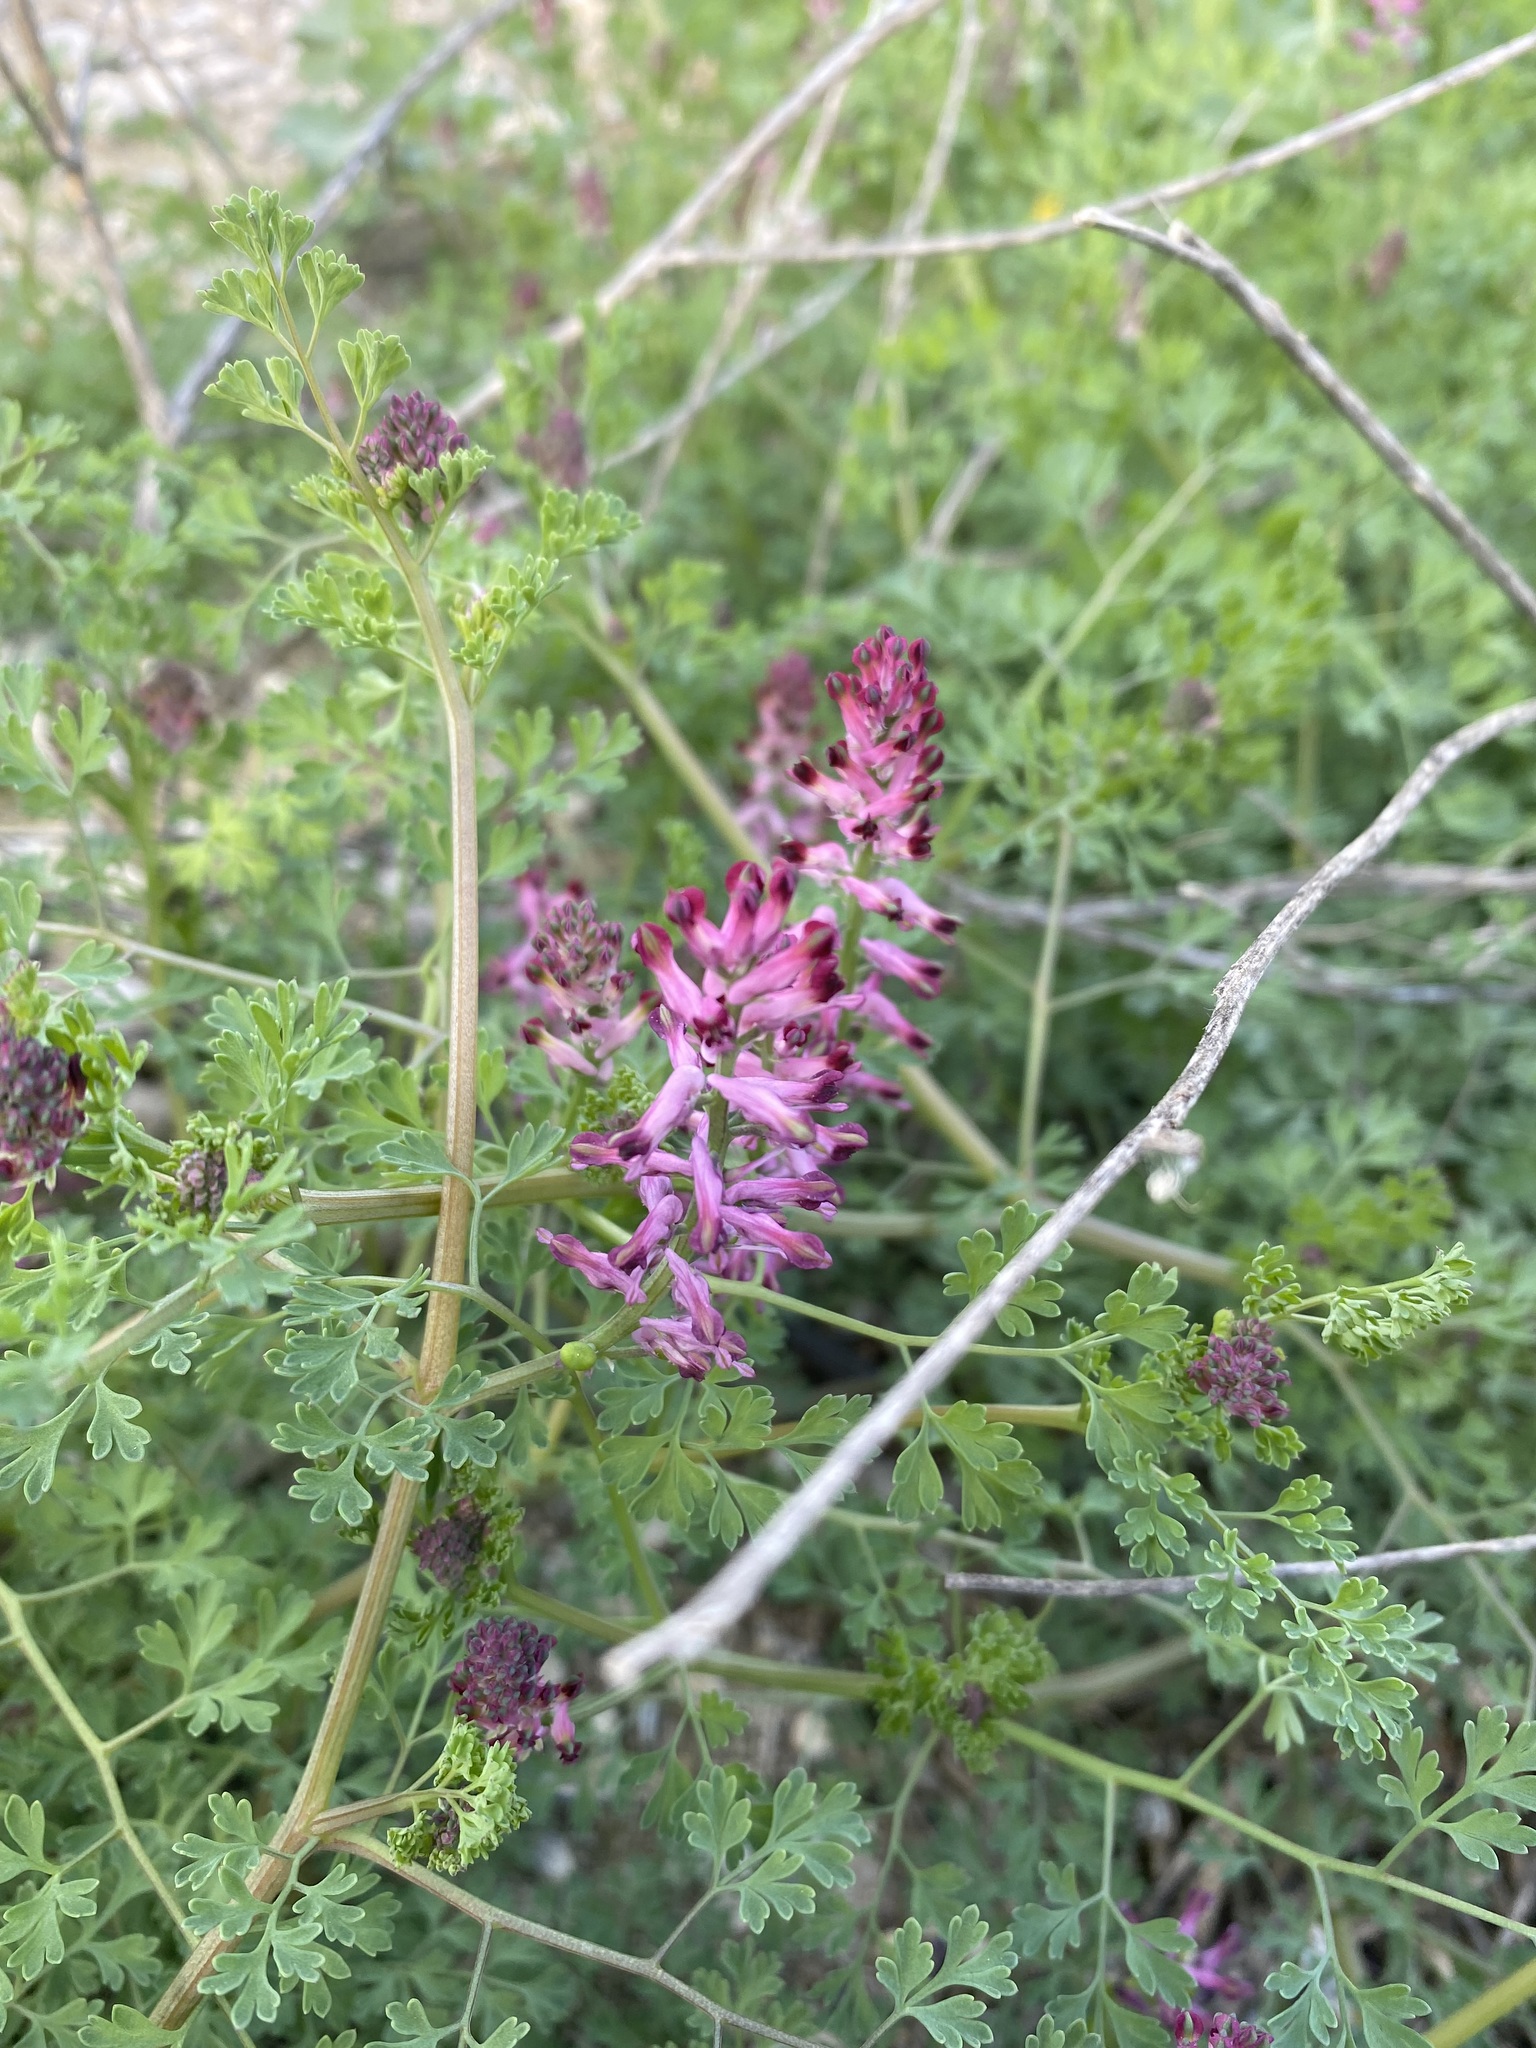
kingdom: Plantae
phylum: Tracheophyta
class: Magnoliopsida
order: Ranunculales
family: Papaveraceae
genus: Fumaria
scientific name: Fumaria officinalis
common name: Common fumitory
